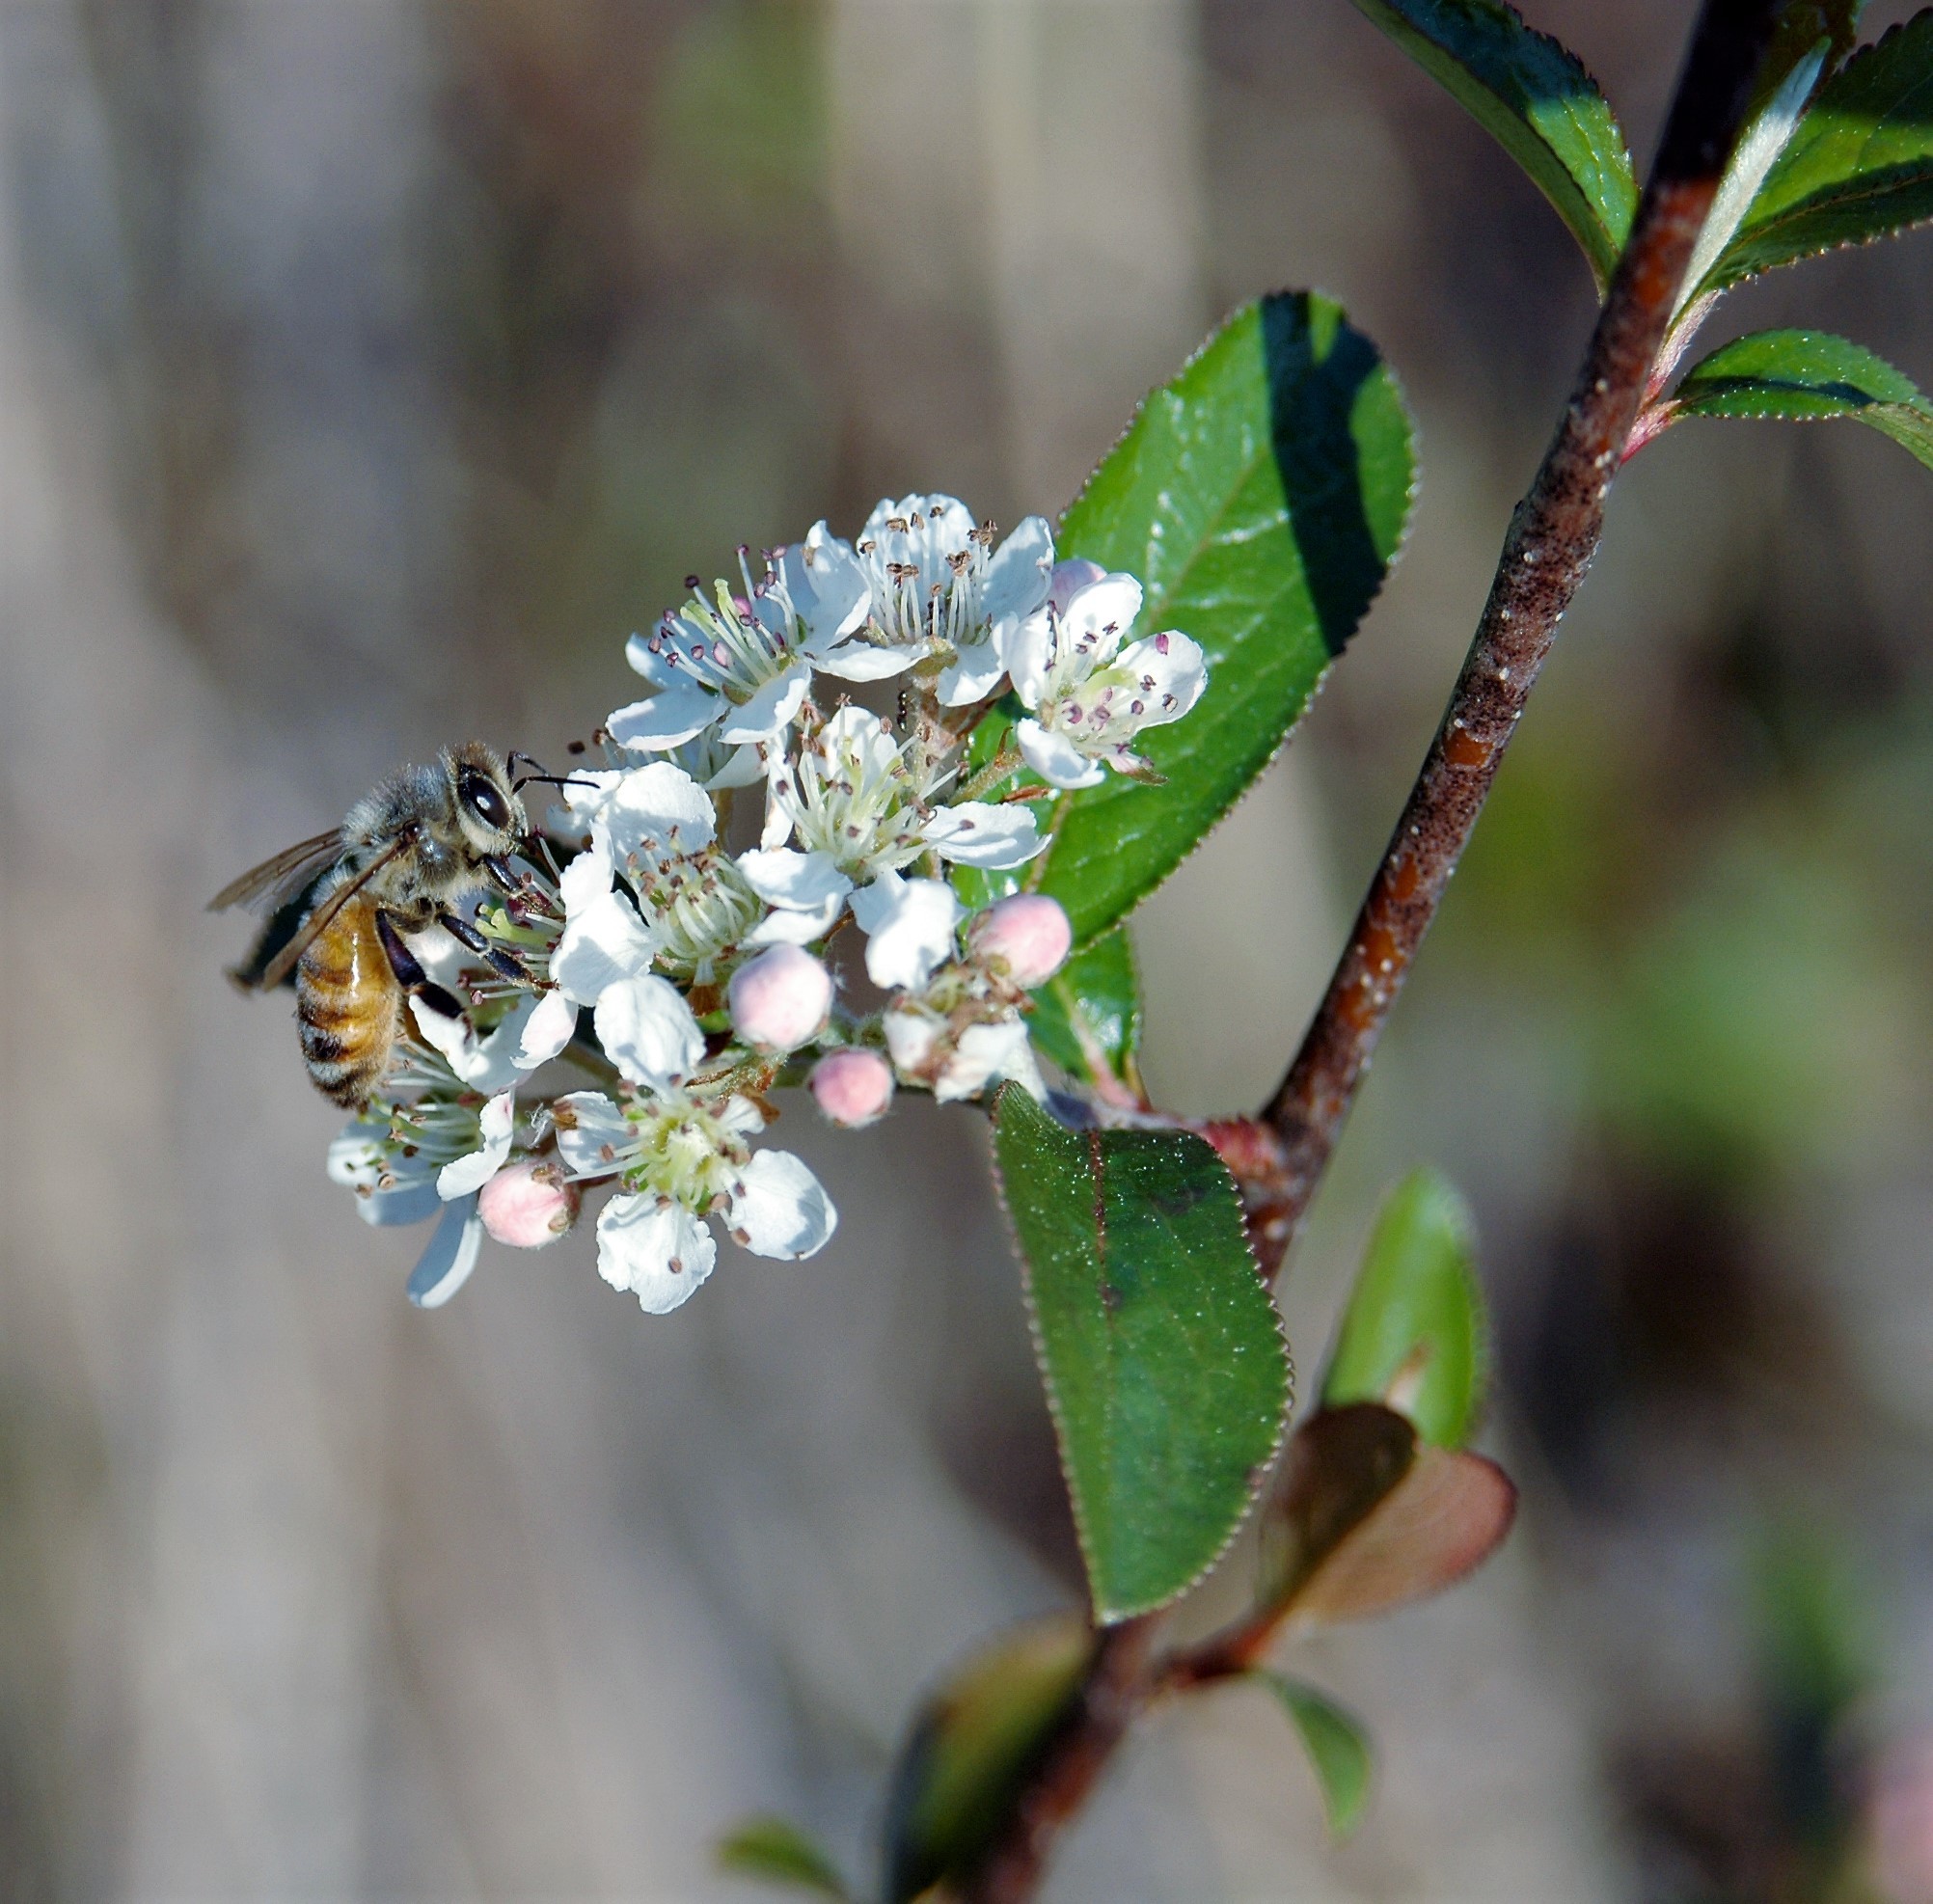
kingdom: Plantae
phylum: Tracheophyta
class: Magnoliopsida
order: Rosales
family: Rosaceae
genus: Aronia
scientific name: Aronia arbutifolia
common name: Red chokeberry
